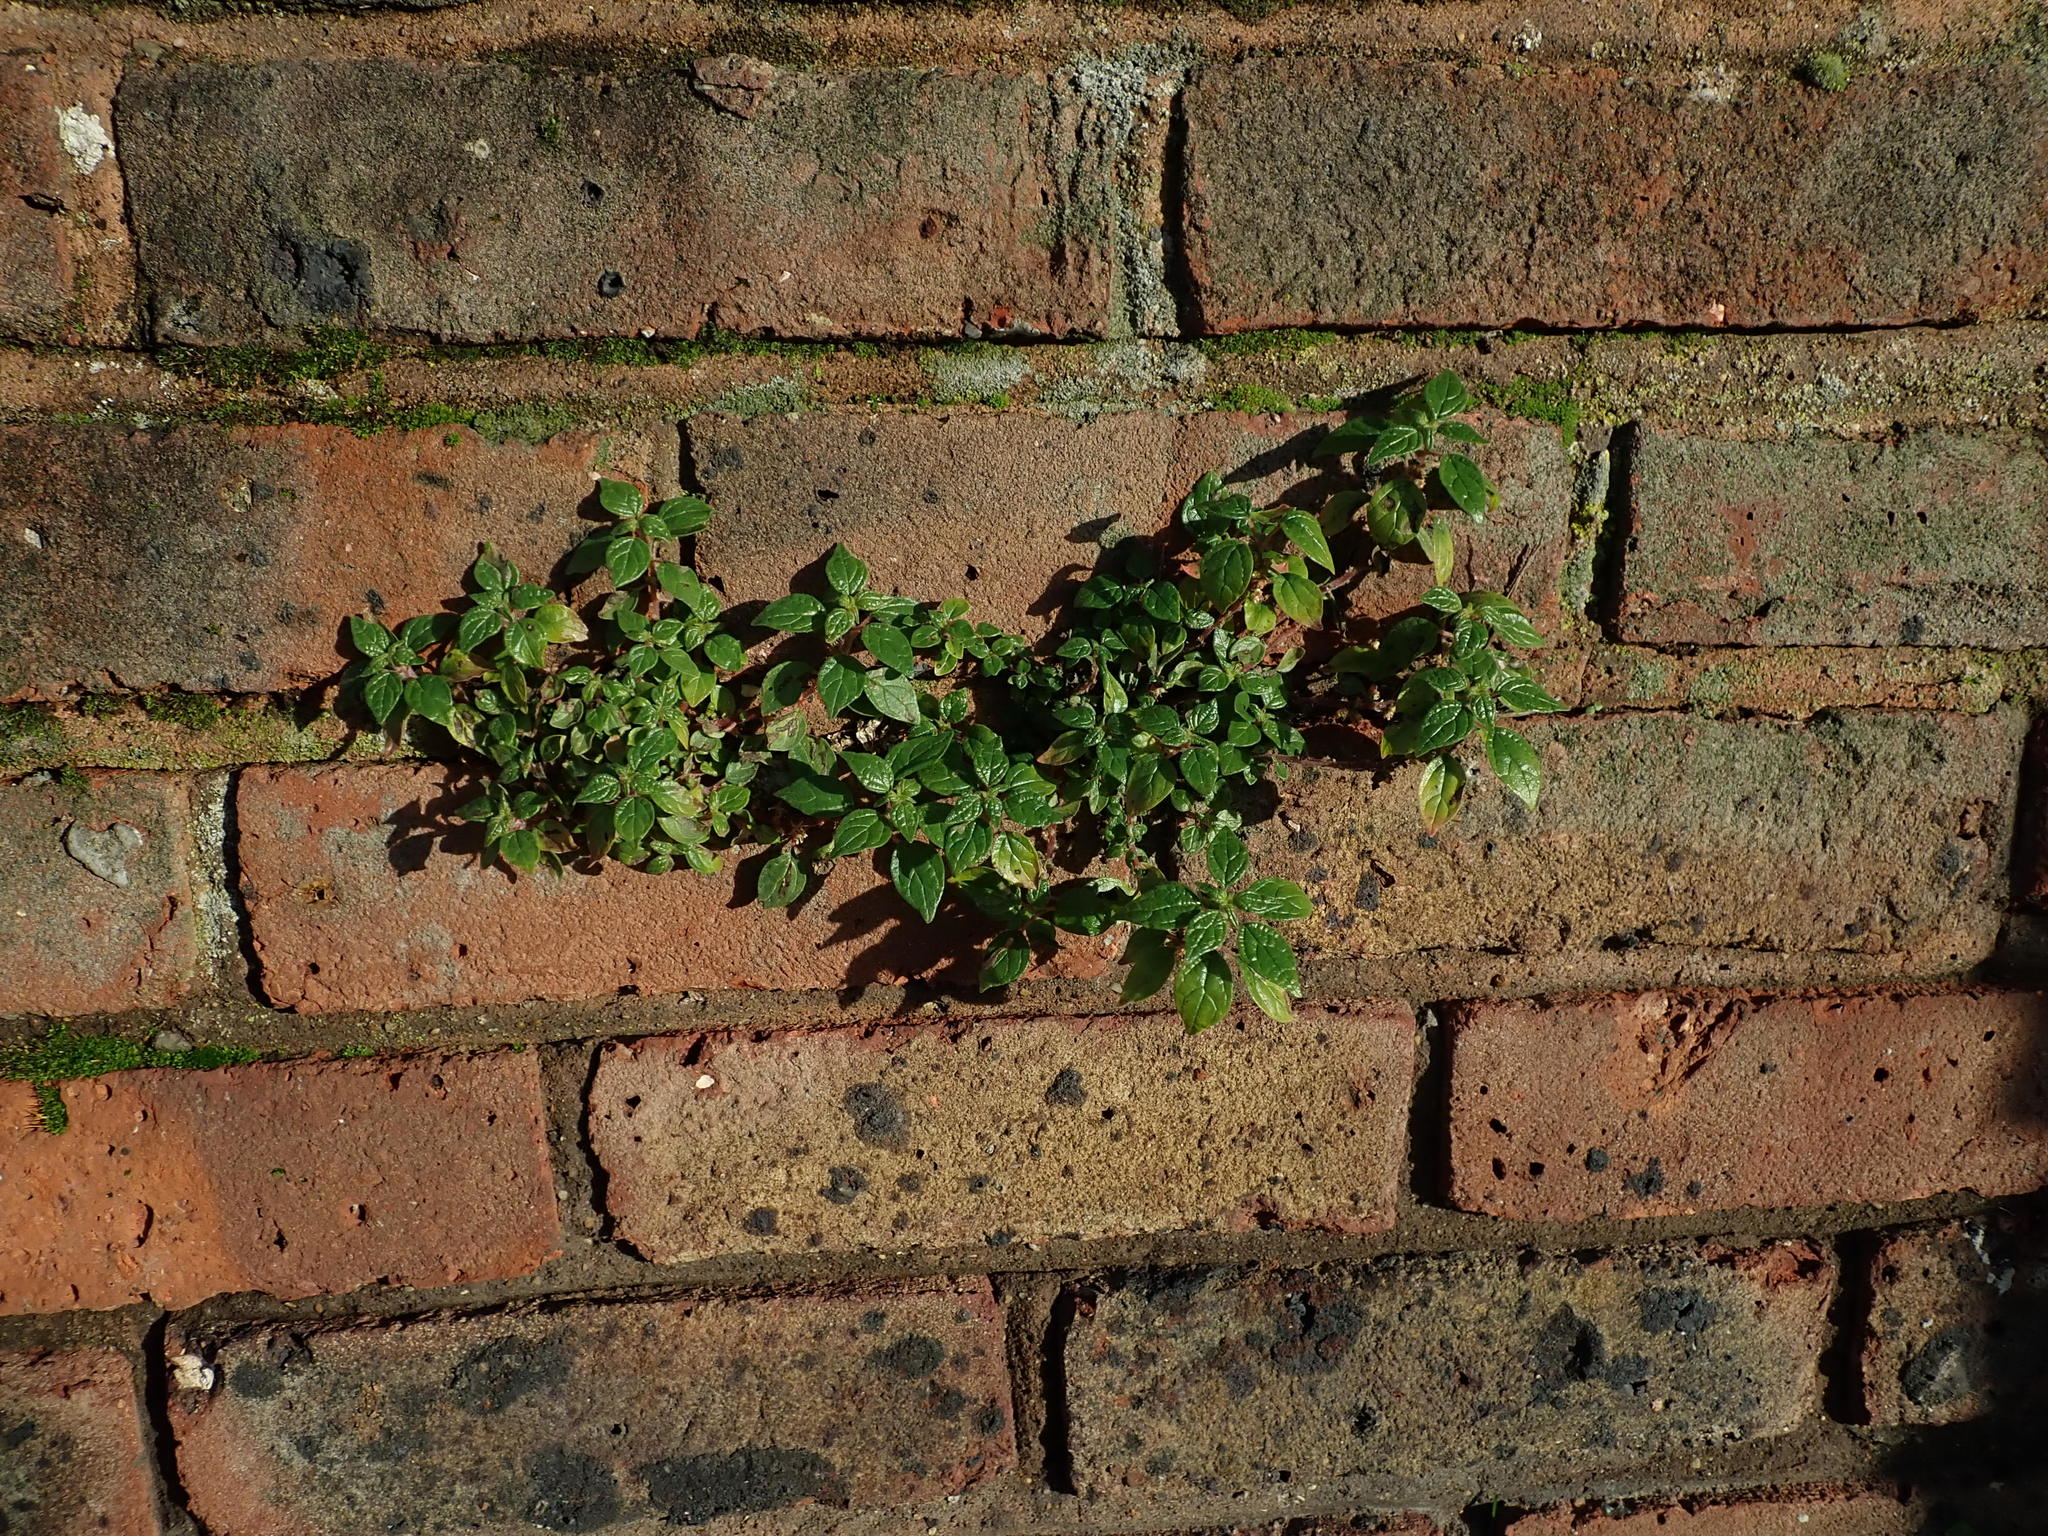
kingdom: Plantae
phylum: Tracheophyta
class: Magnoliopsida
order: Rosales
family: Urticaceae
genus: Parietaria
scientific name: Parietaria judaica
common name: Pellitory-of-the-wall
